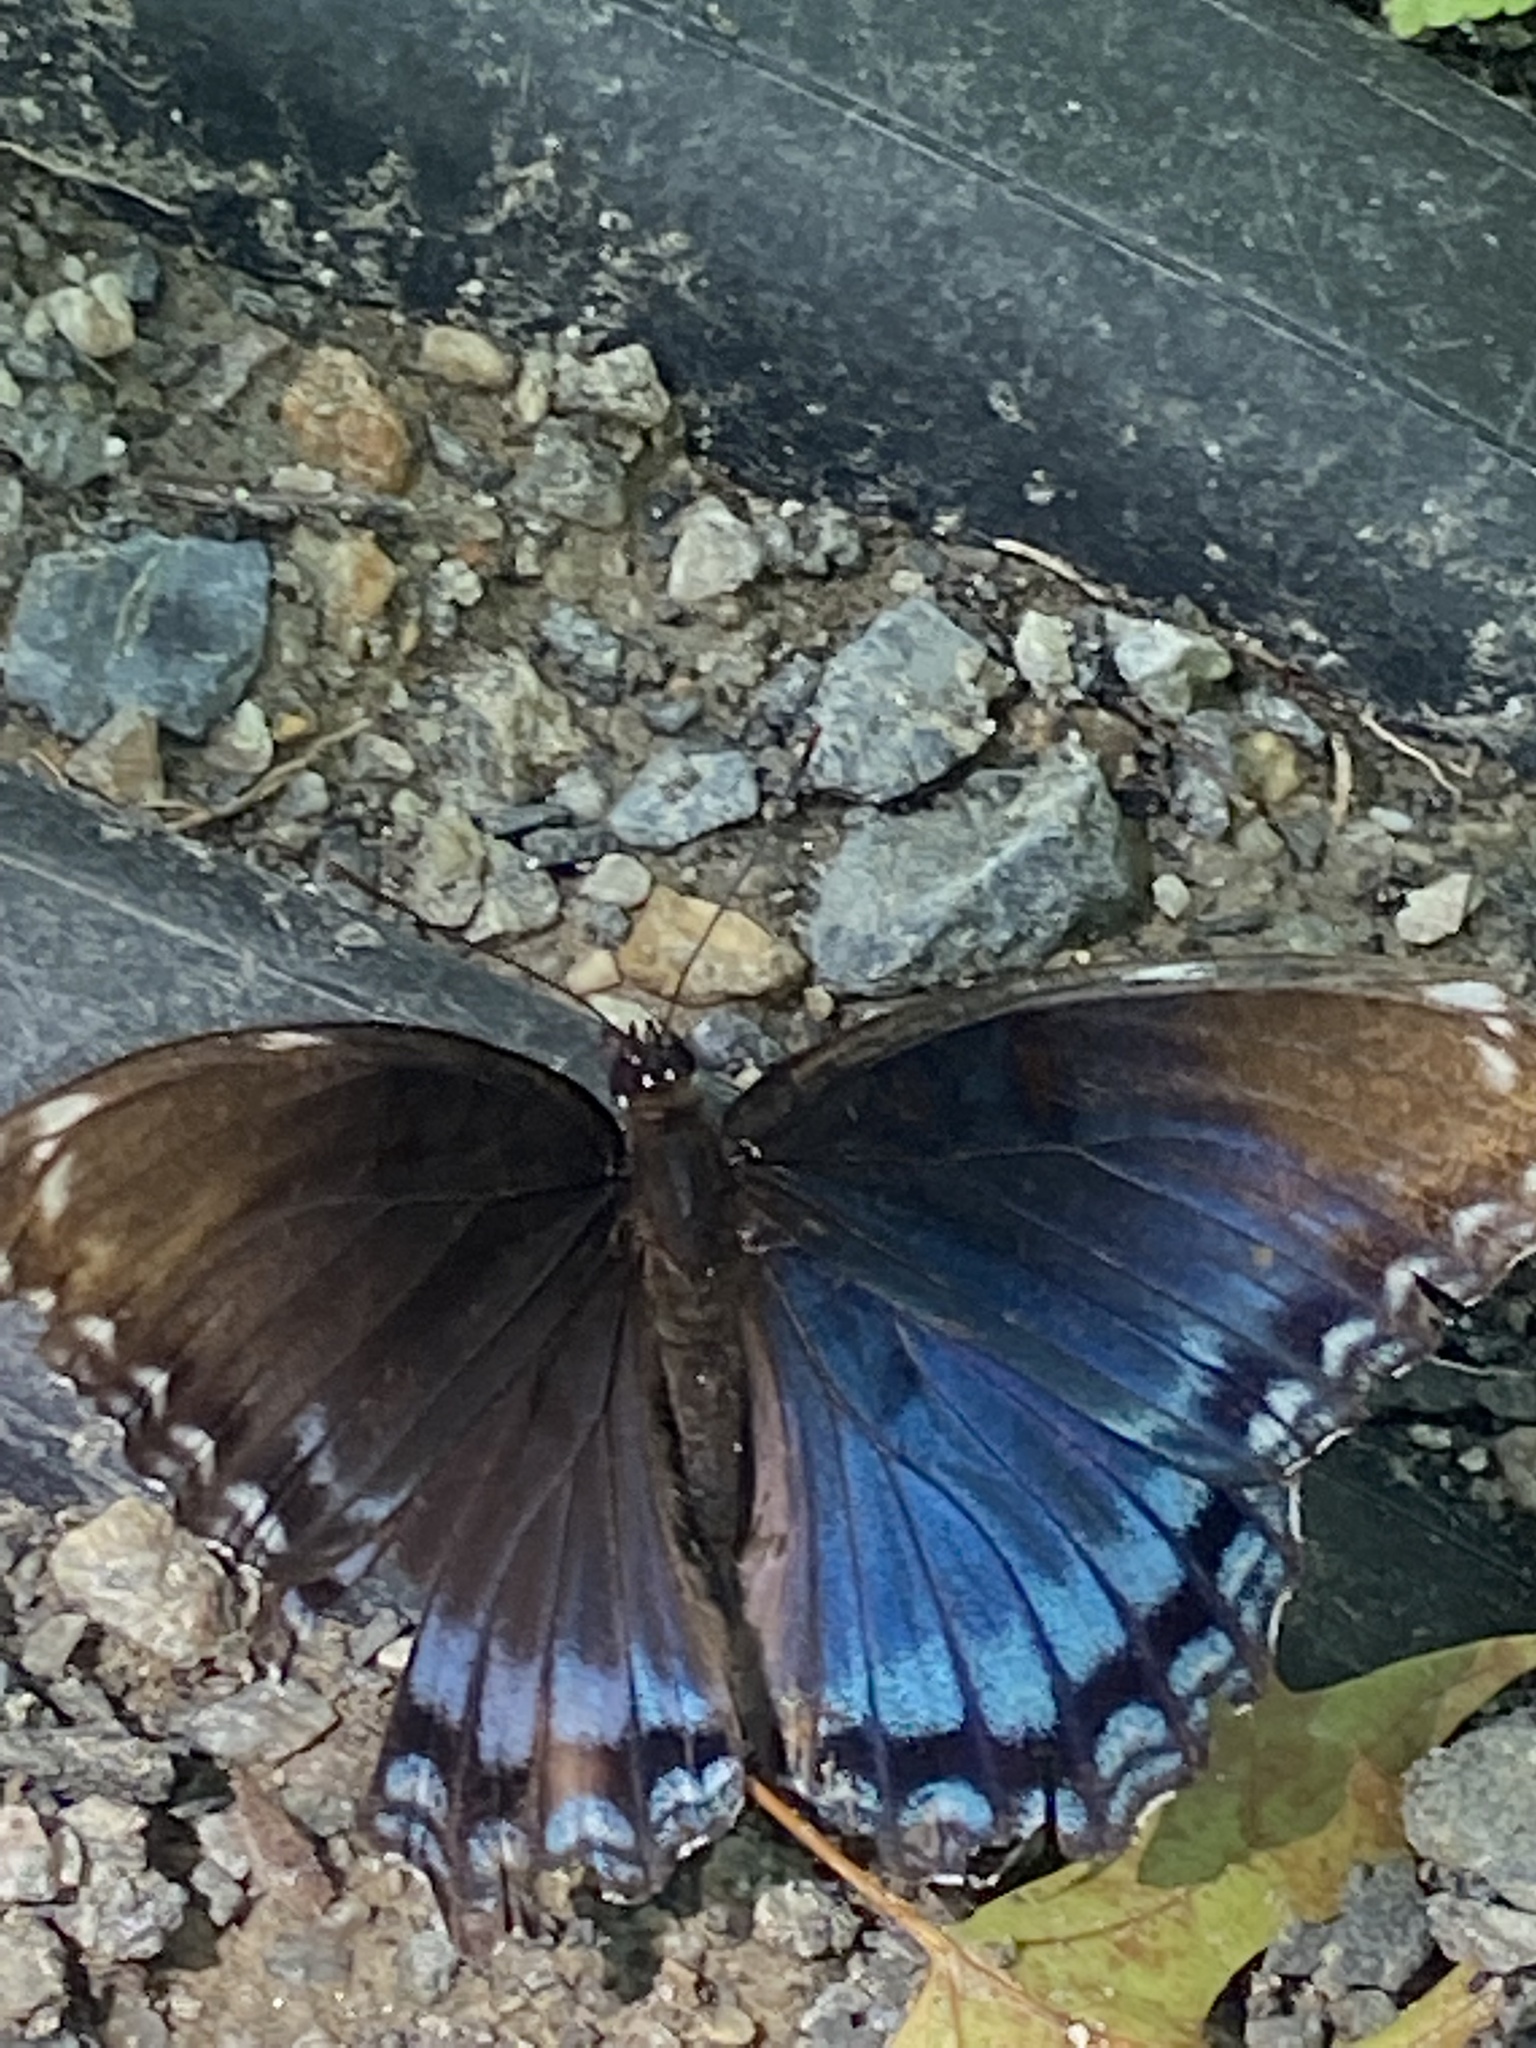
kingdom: Animalia
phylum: Arthropoda
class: Insecta
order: Lepidoptera
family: Nymphalidae
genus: Limenitis
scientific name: Limenitis arthemis
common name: Red-spotted admiral
